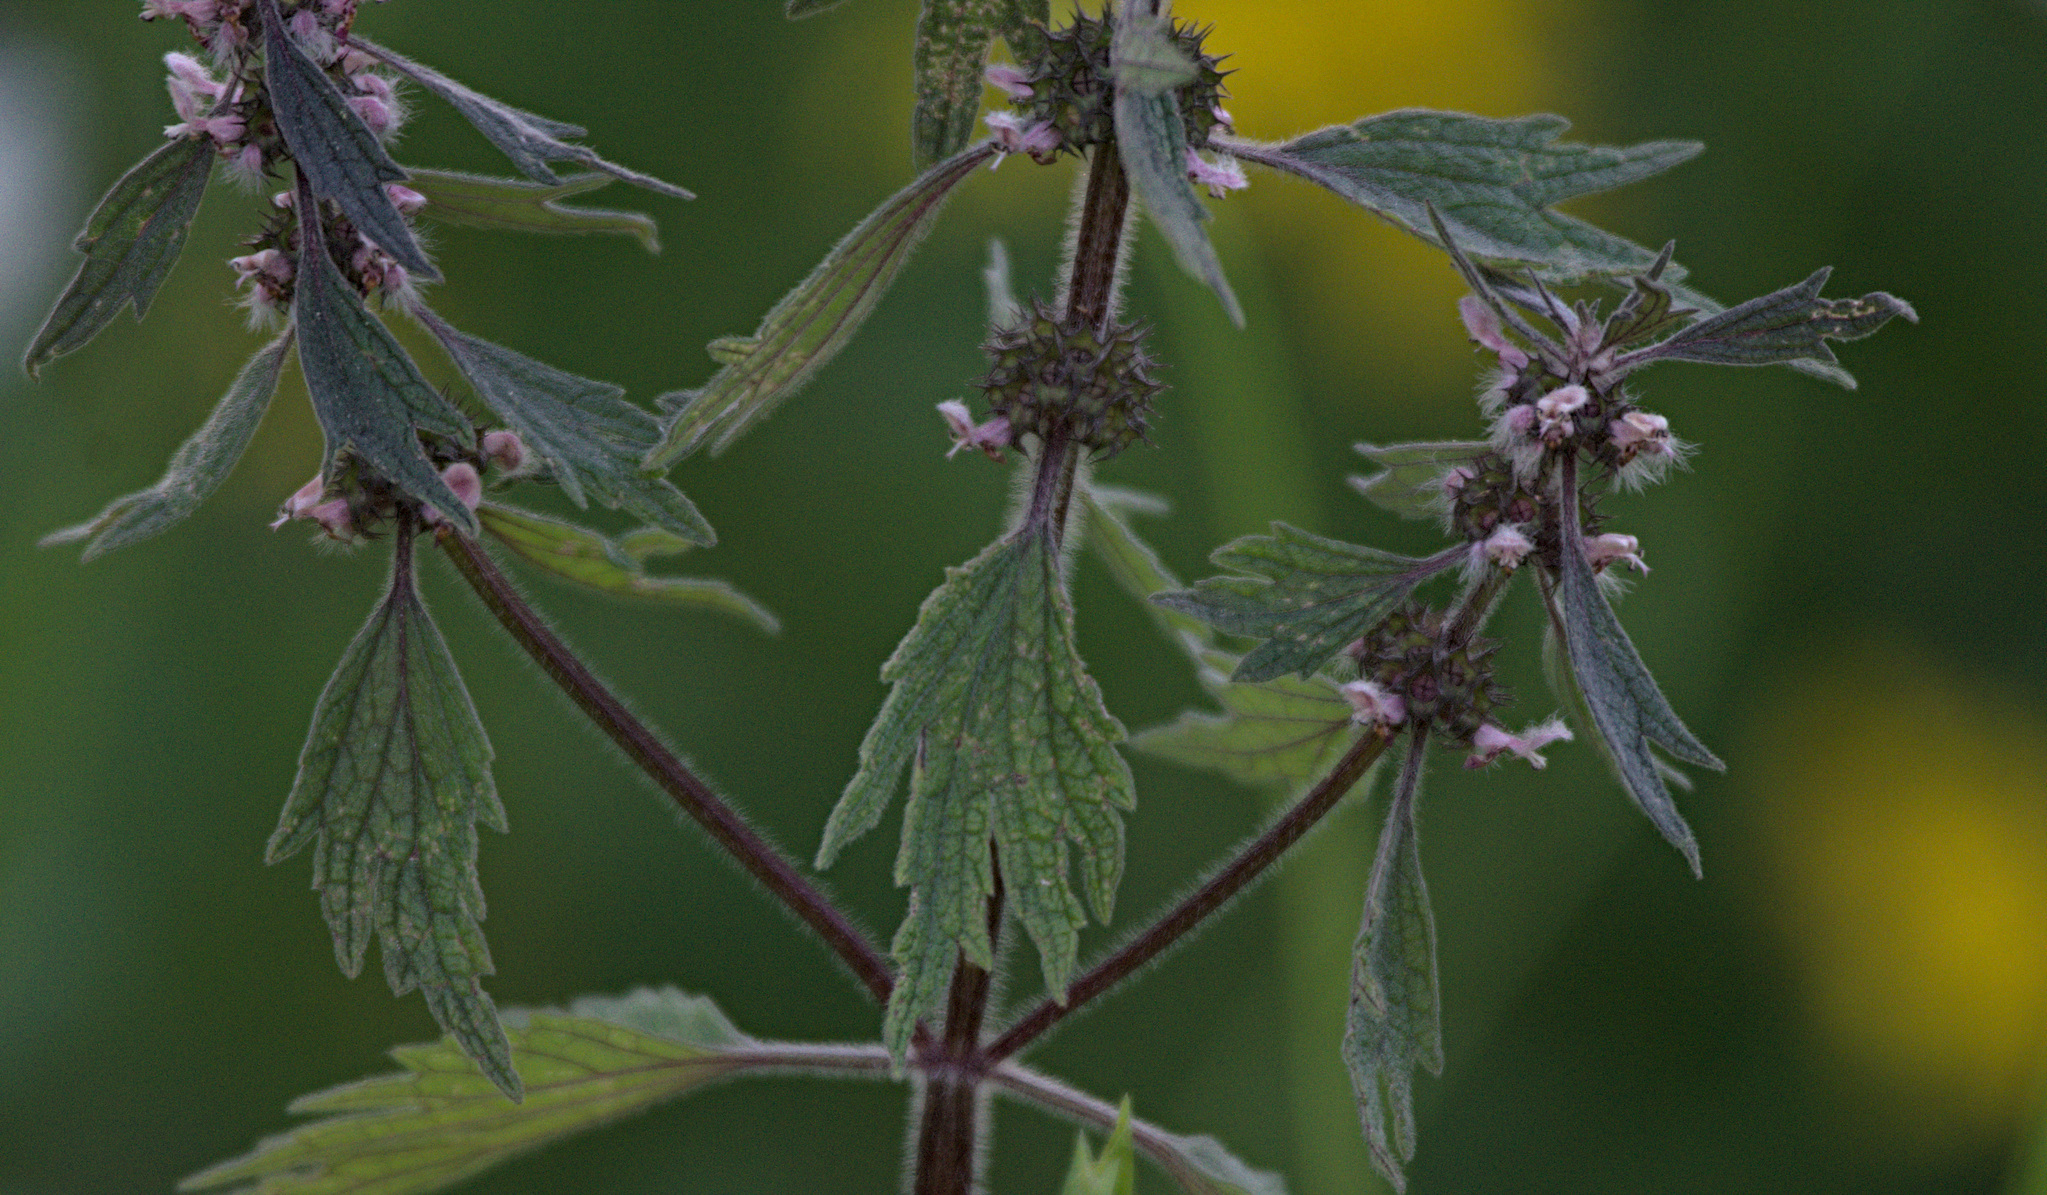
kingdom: Plantae
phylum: Tracheophyta
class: Magnoliopsida
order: Lamiales
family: Lamiaceae
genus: Phlomoides
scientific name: Phlomoides tuberosa
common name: Tuberous jerusalem sage
